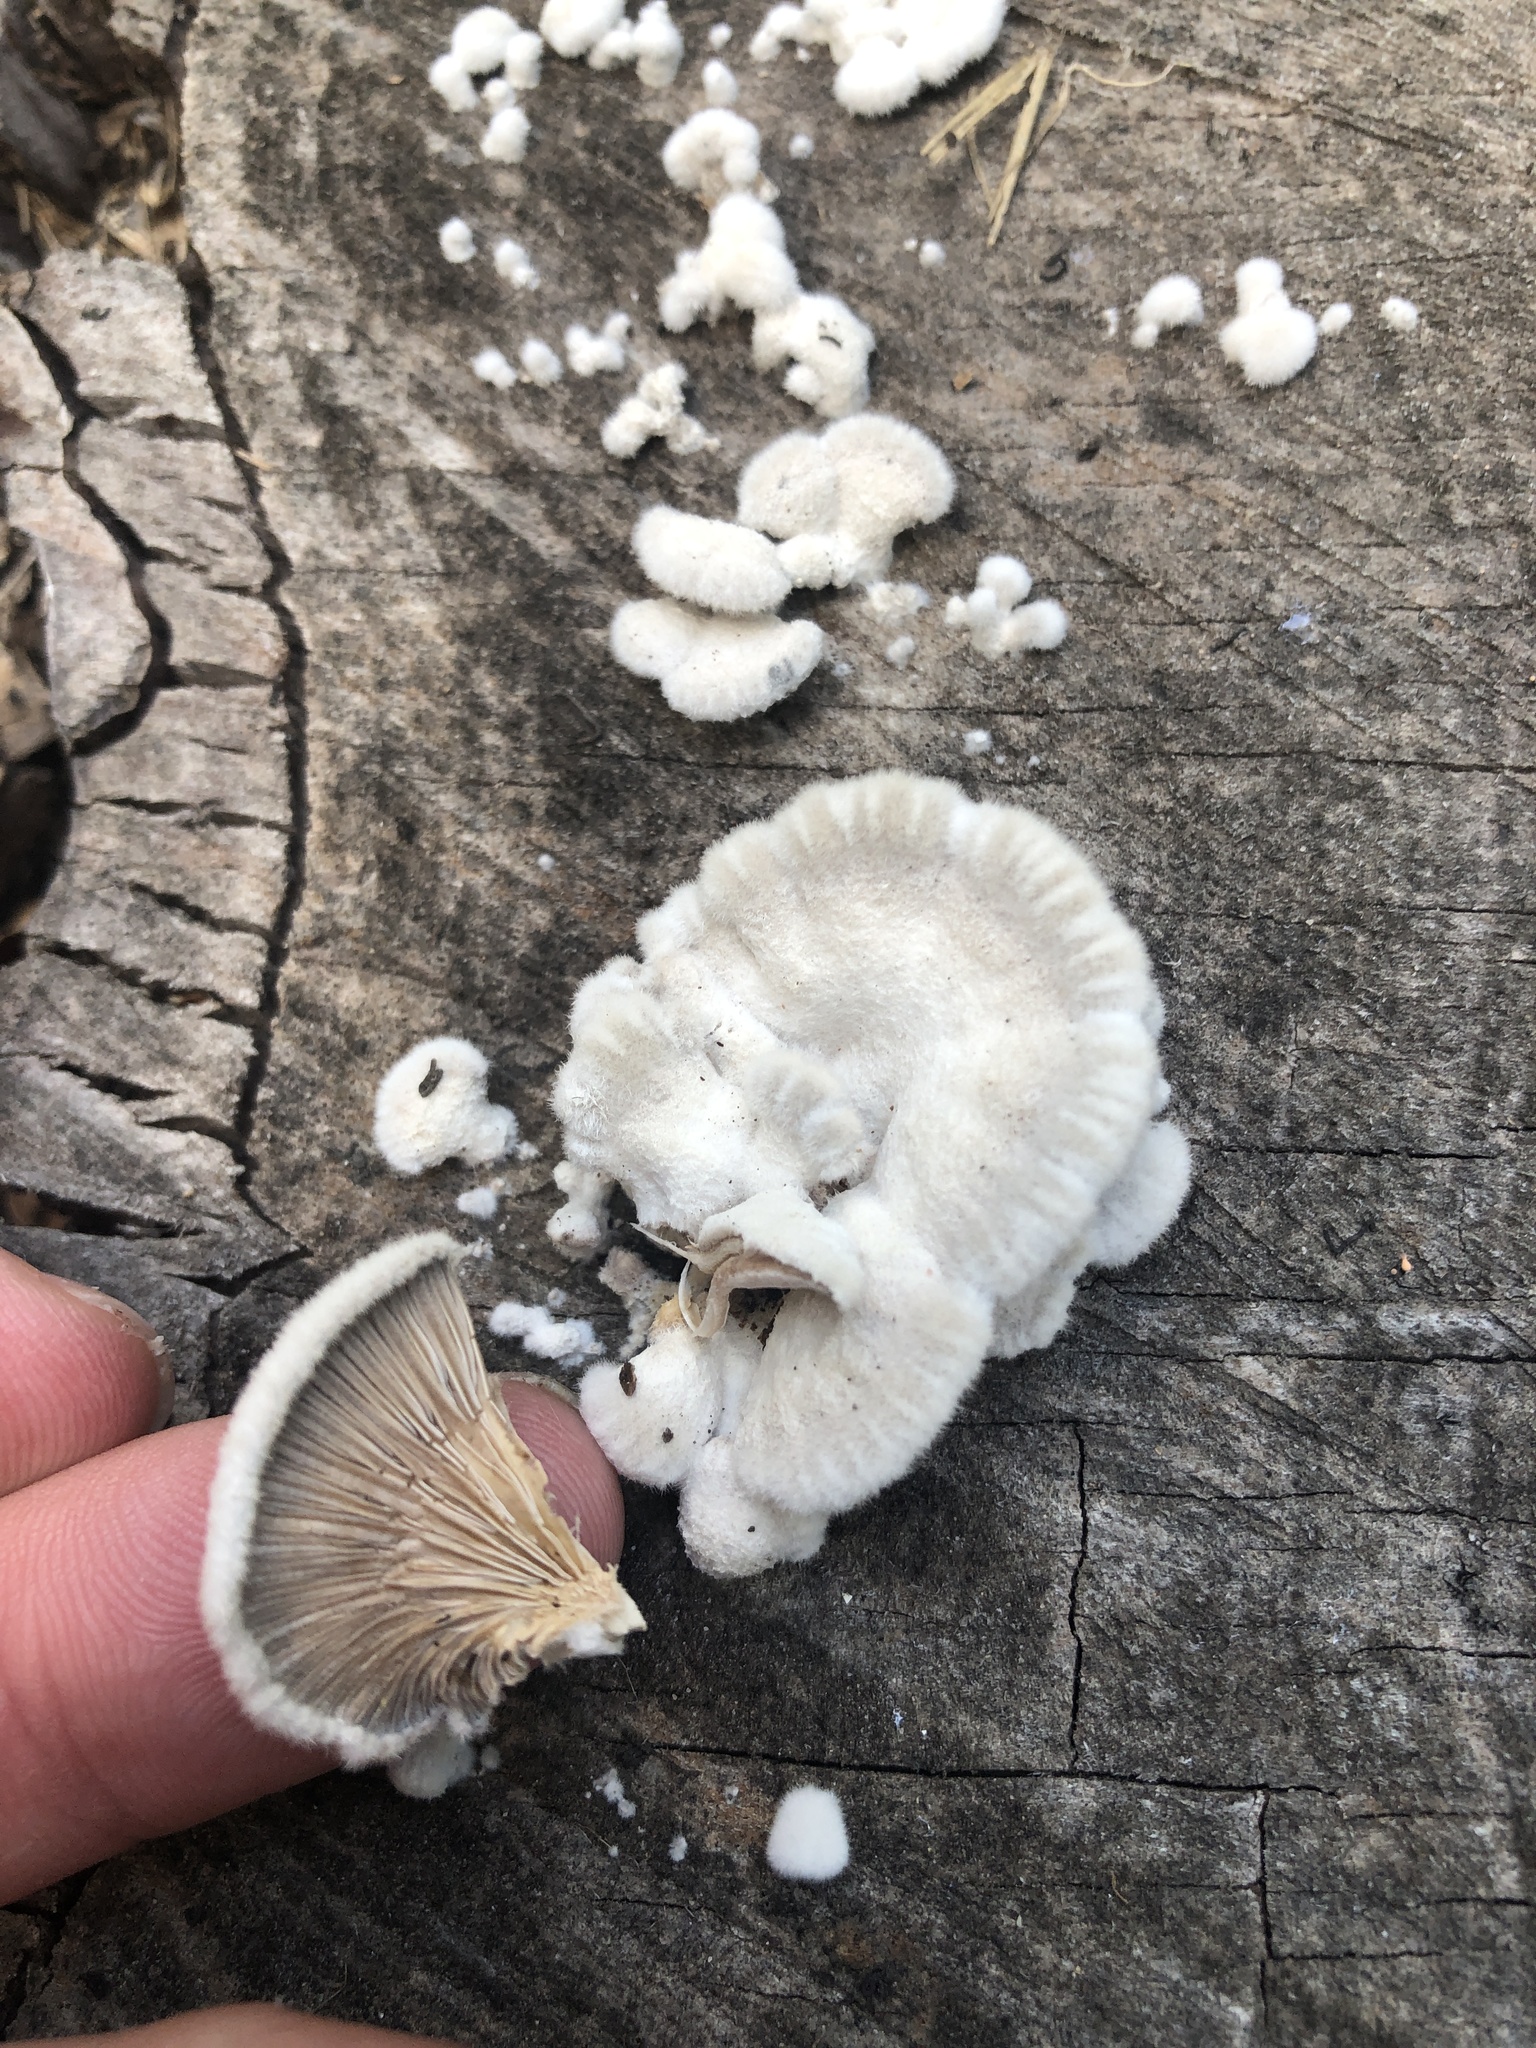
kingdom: Fungi
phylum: Basidiomycota
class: Agaricomycetes
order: Agaricales
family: Schizophyllaceae
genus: Schizophyllum
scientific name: Schizophyllum commune
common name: Common porecrust
